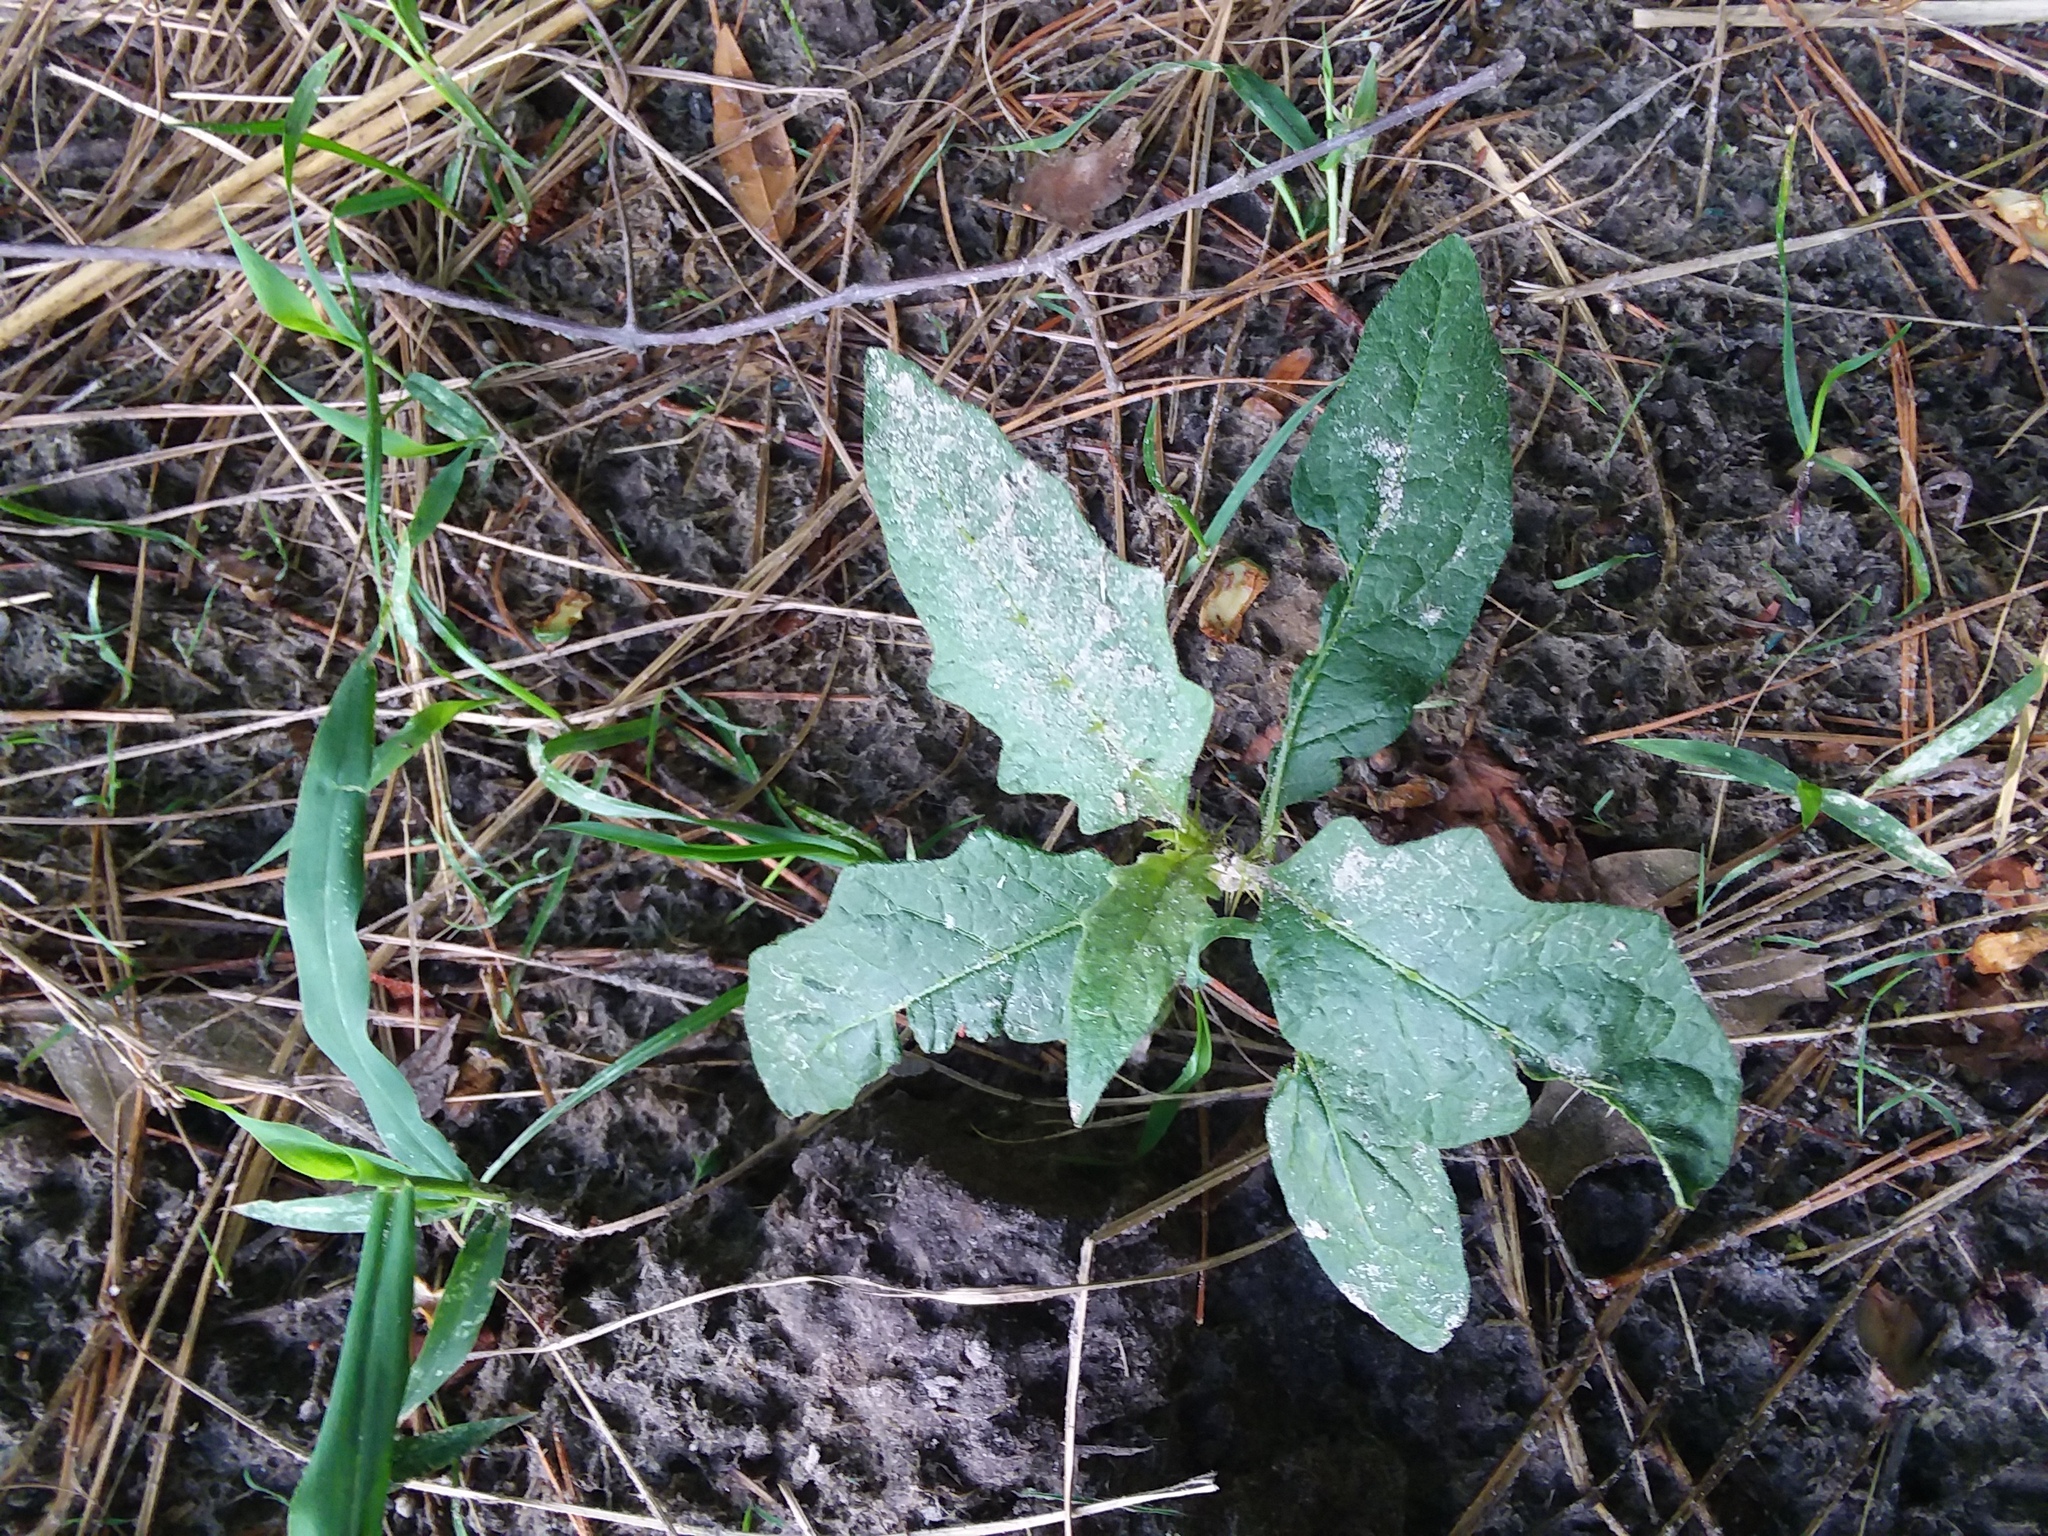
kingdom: Plantae
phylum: Tracheophyta
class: Magnoliopsida
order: Solanales
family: Solanaceae
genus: Solanum
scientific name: Solanum carolinense
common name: Horse-nettle
